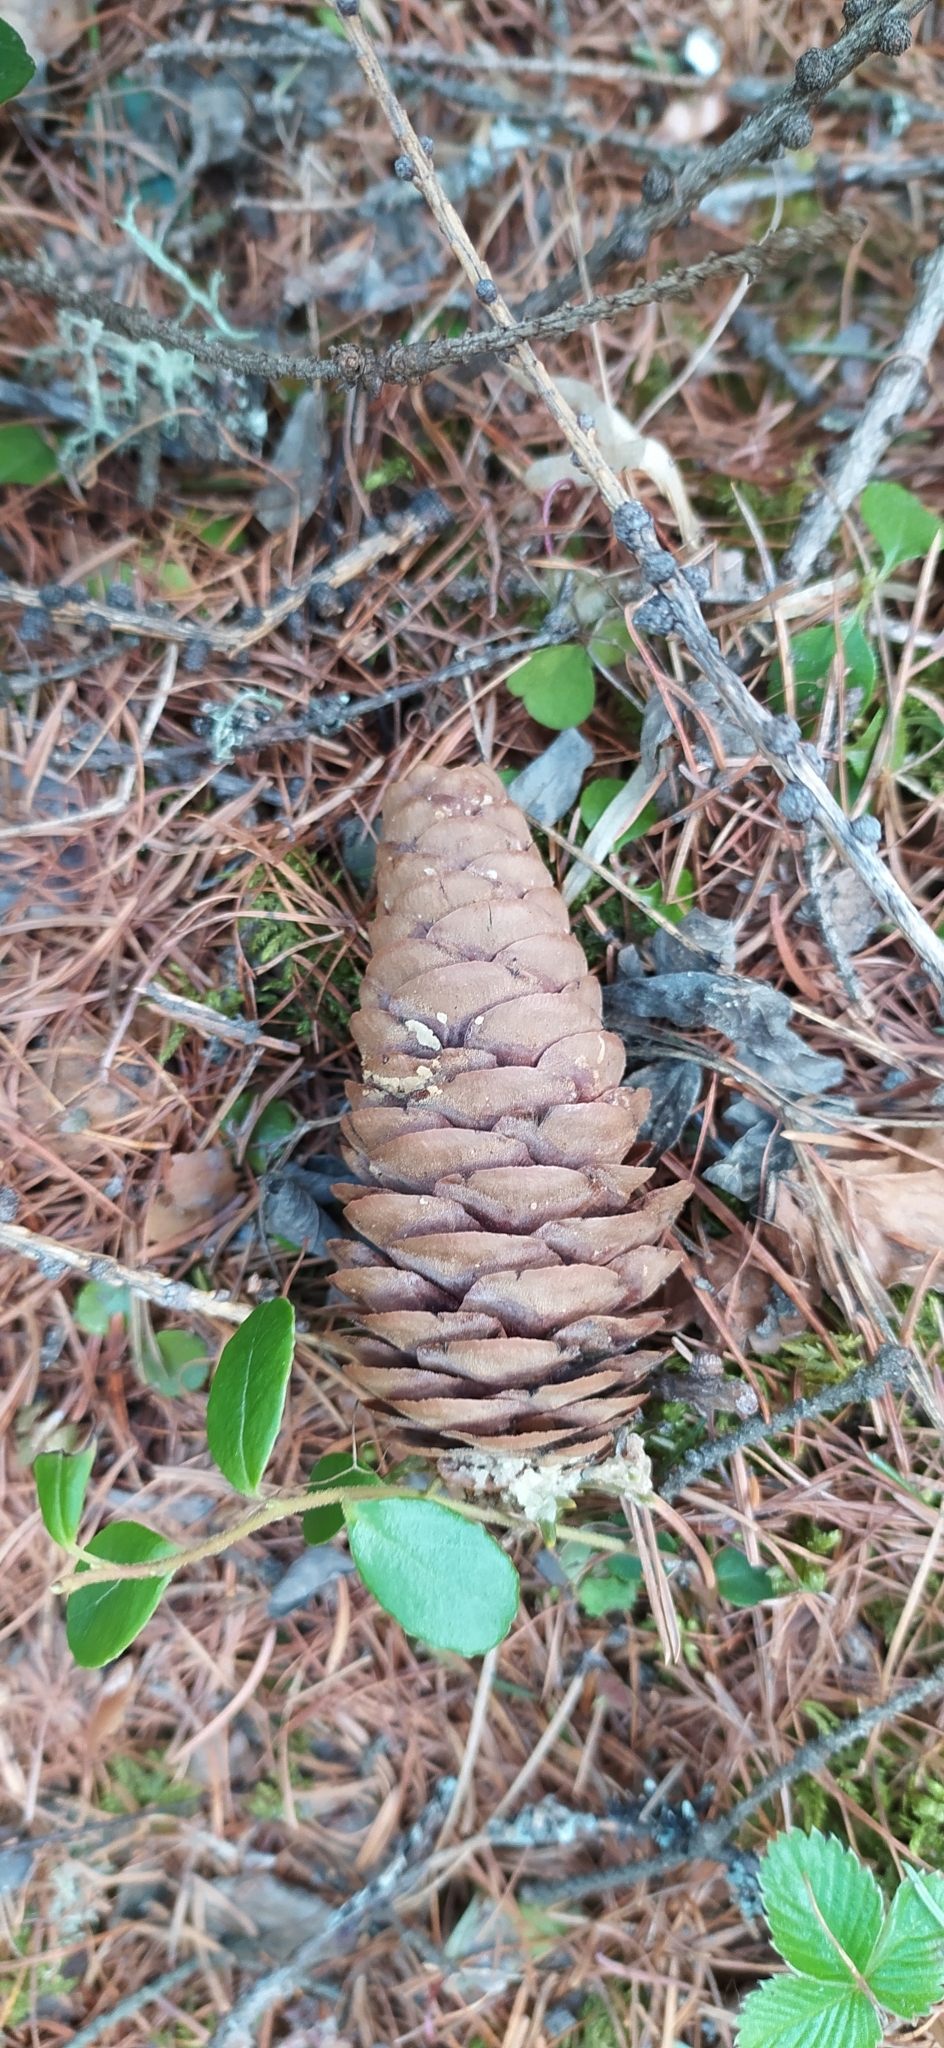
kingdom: Plantae
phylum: Tracheophyta
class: Pinopsida
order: Pinales
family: Pinaceae
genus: Picea
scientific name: Picea obovata
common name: Siberian spruce
